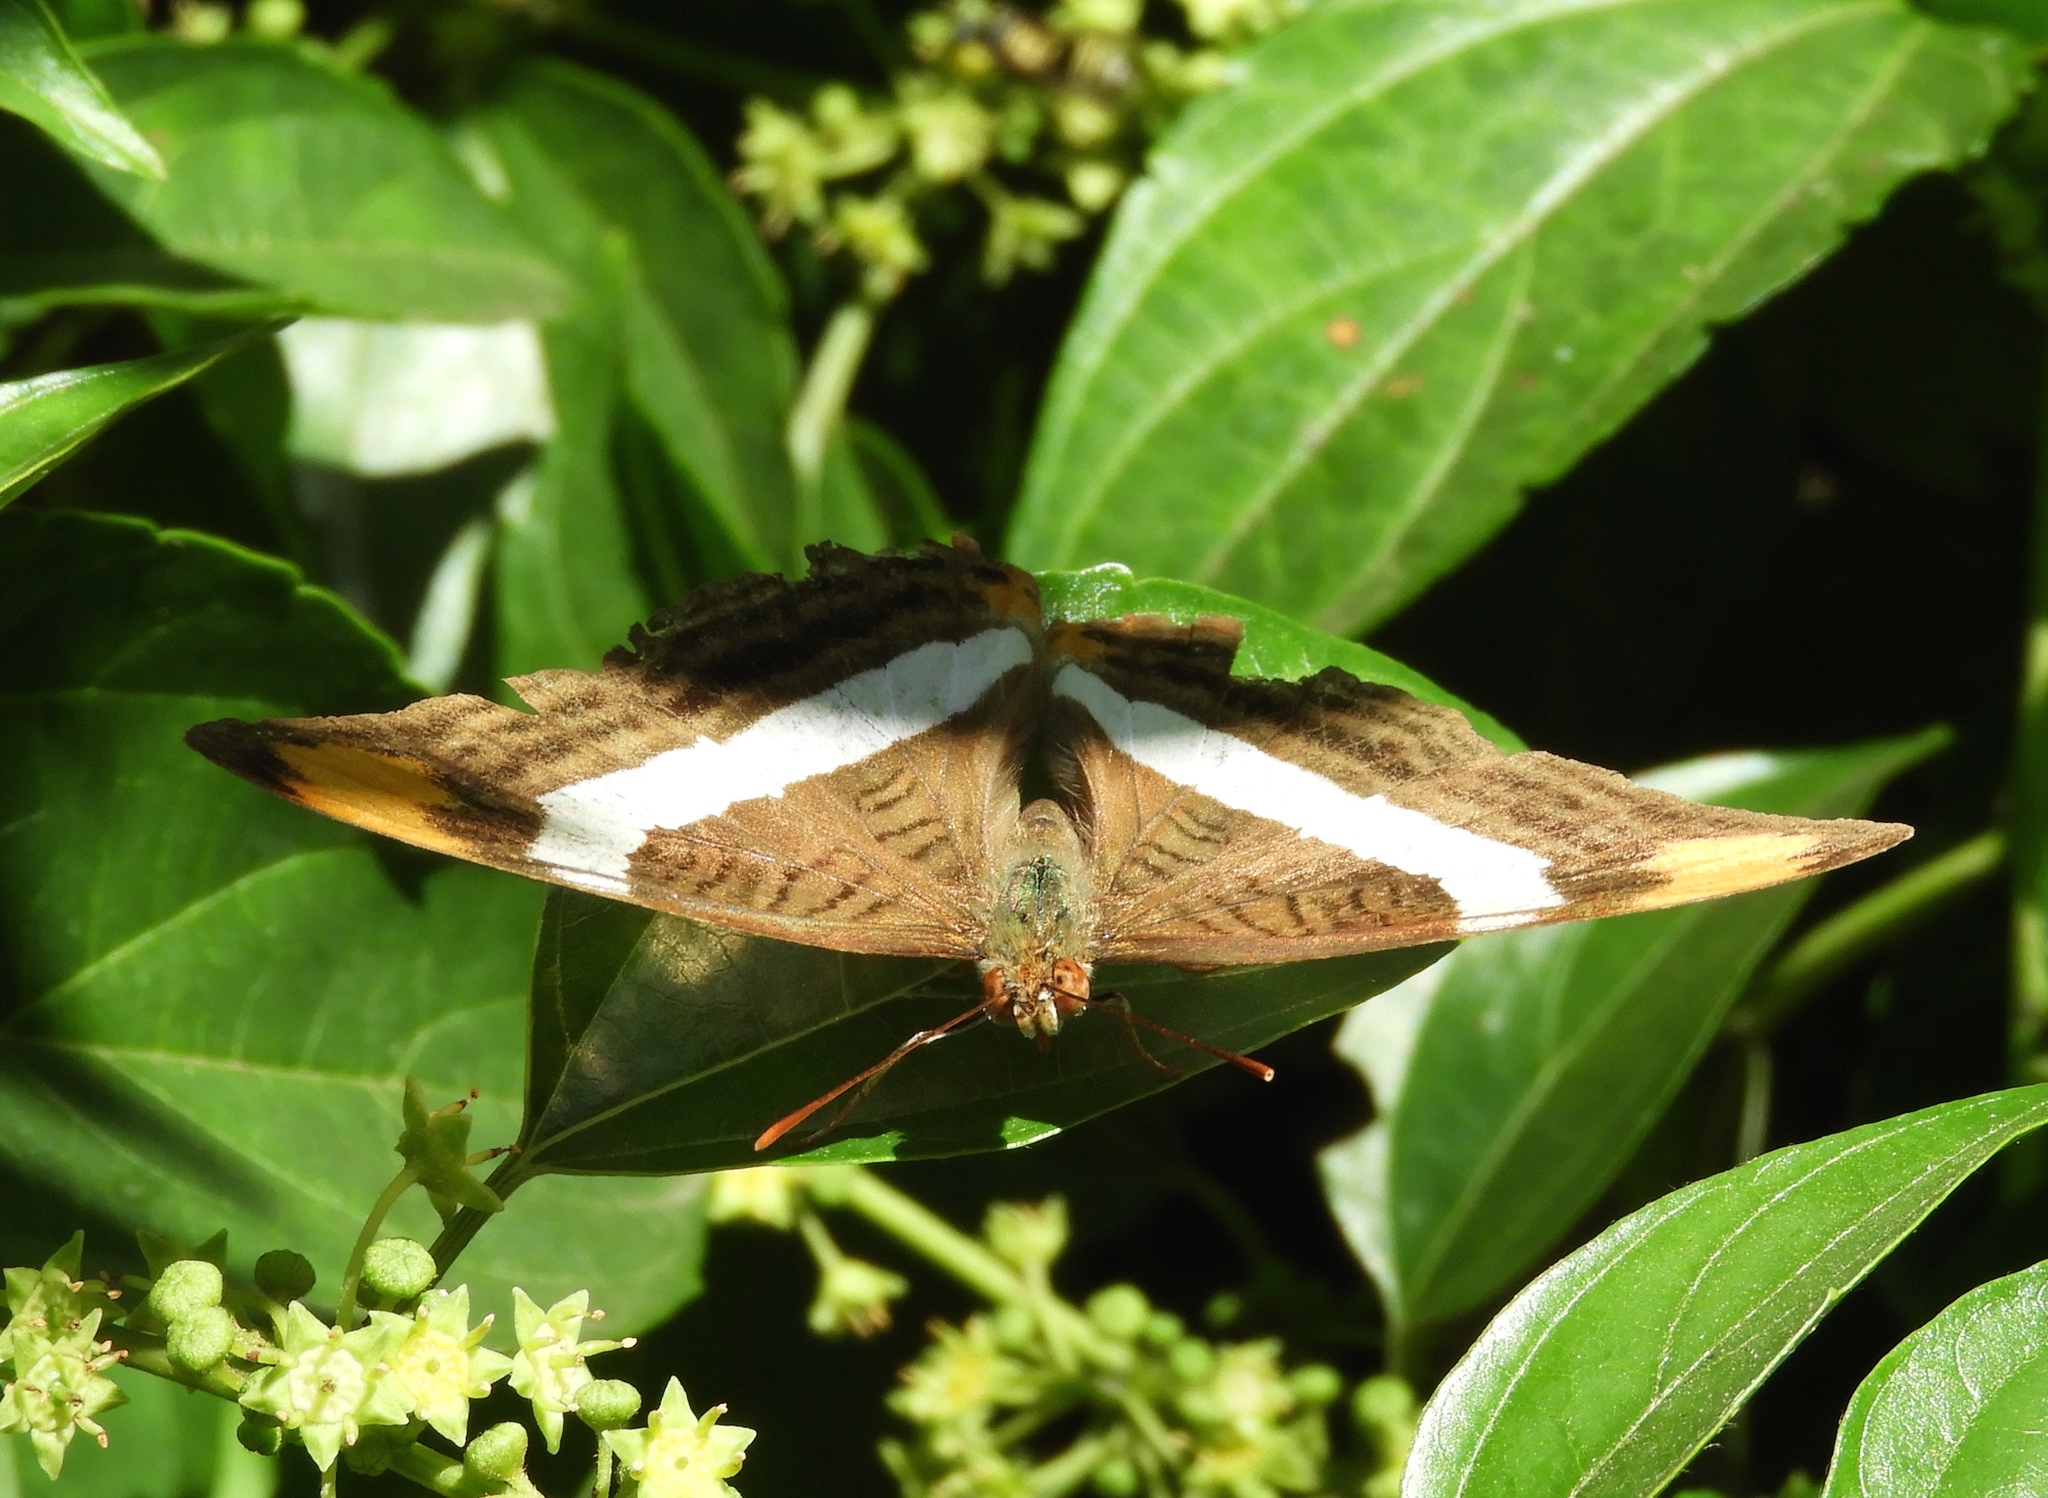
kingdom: Animalia
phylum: Arthropoda
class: Insecta
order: Lepidoptera
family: Nymphalidae
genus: Limenitis
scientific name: Limenitis fessonia
